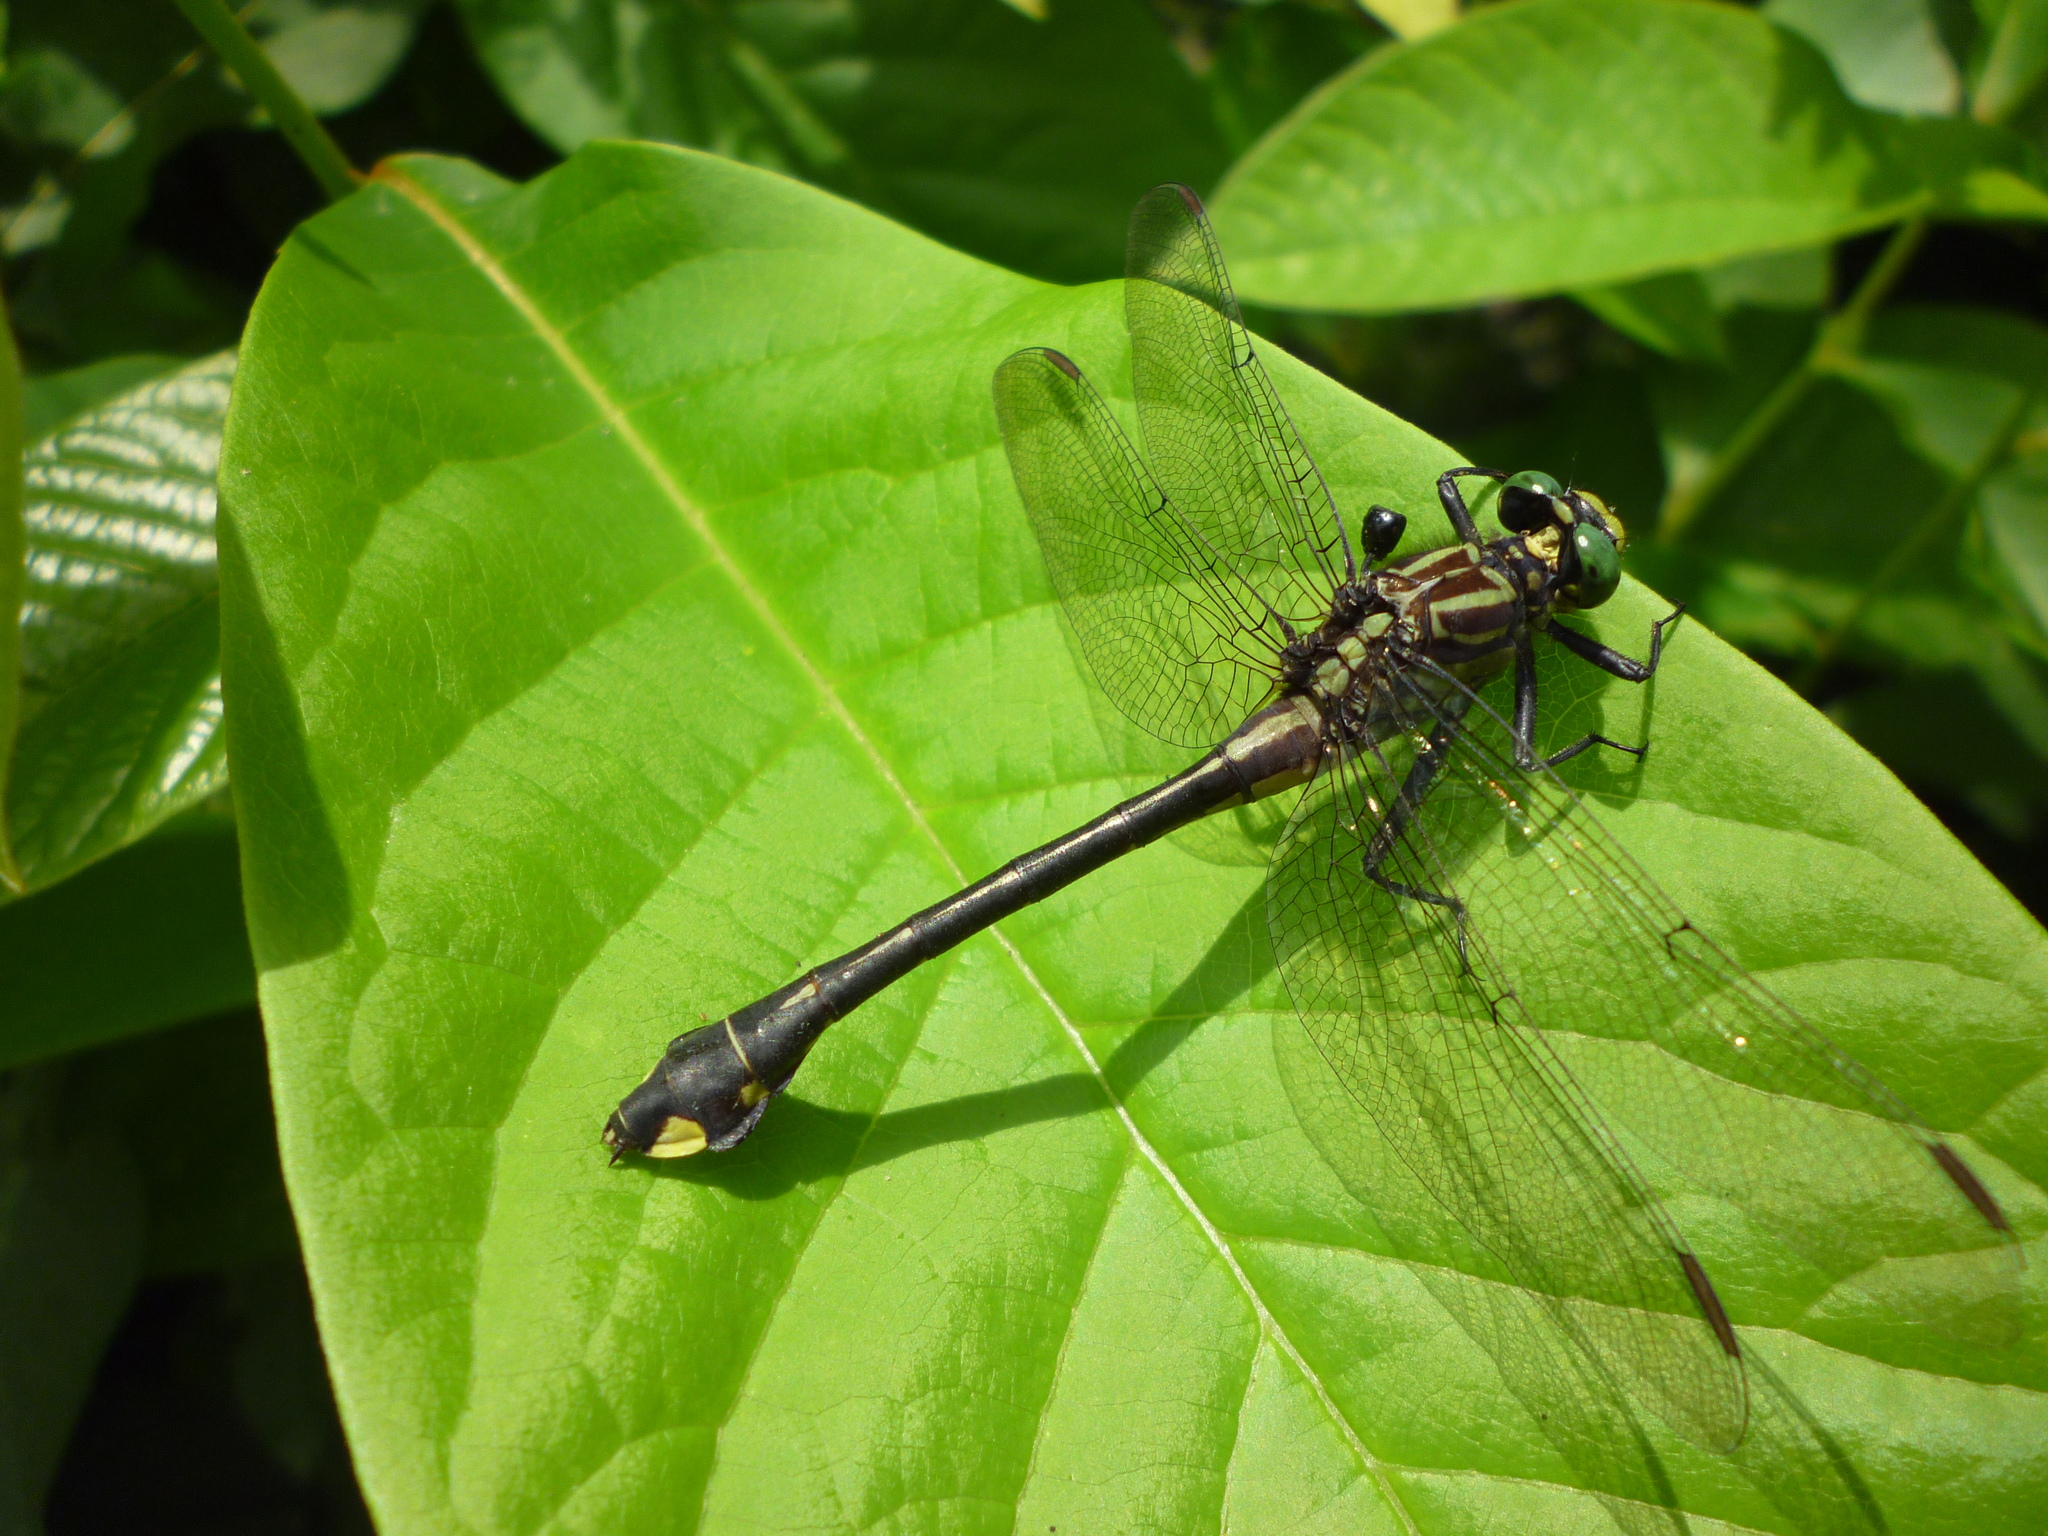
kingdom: Animalia
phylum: Arthropoda
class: Insecta
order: Odonata
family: Gomphidae
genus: Gomphurus
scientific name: Gomphurus vastus
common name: Cobra clubtail
